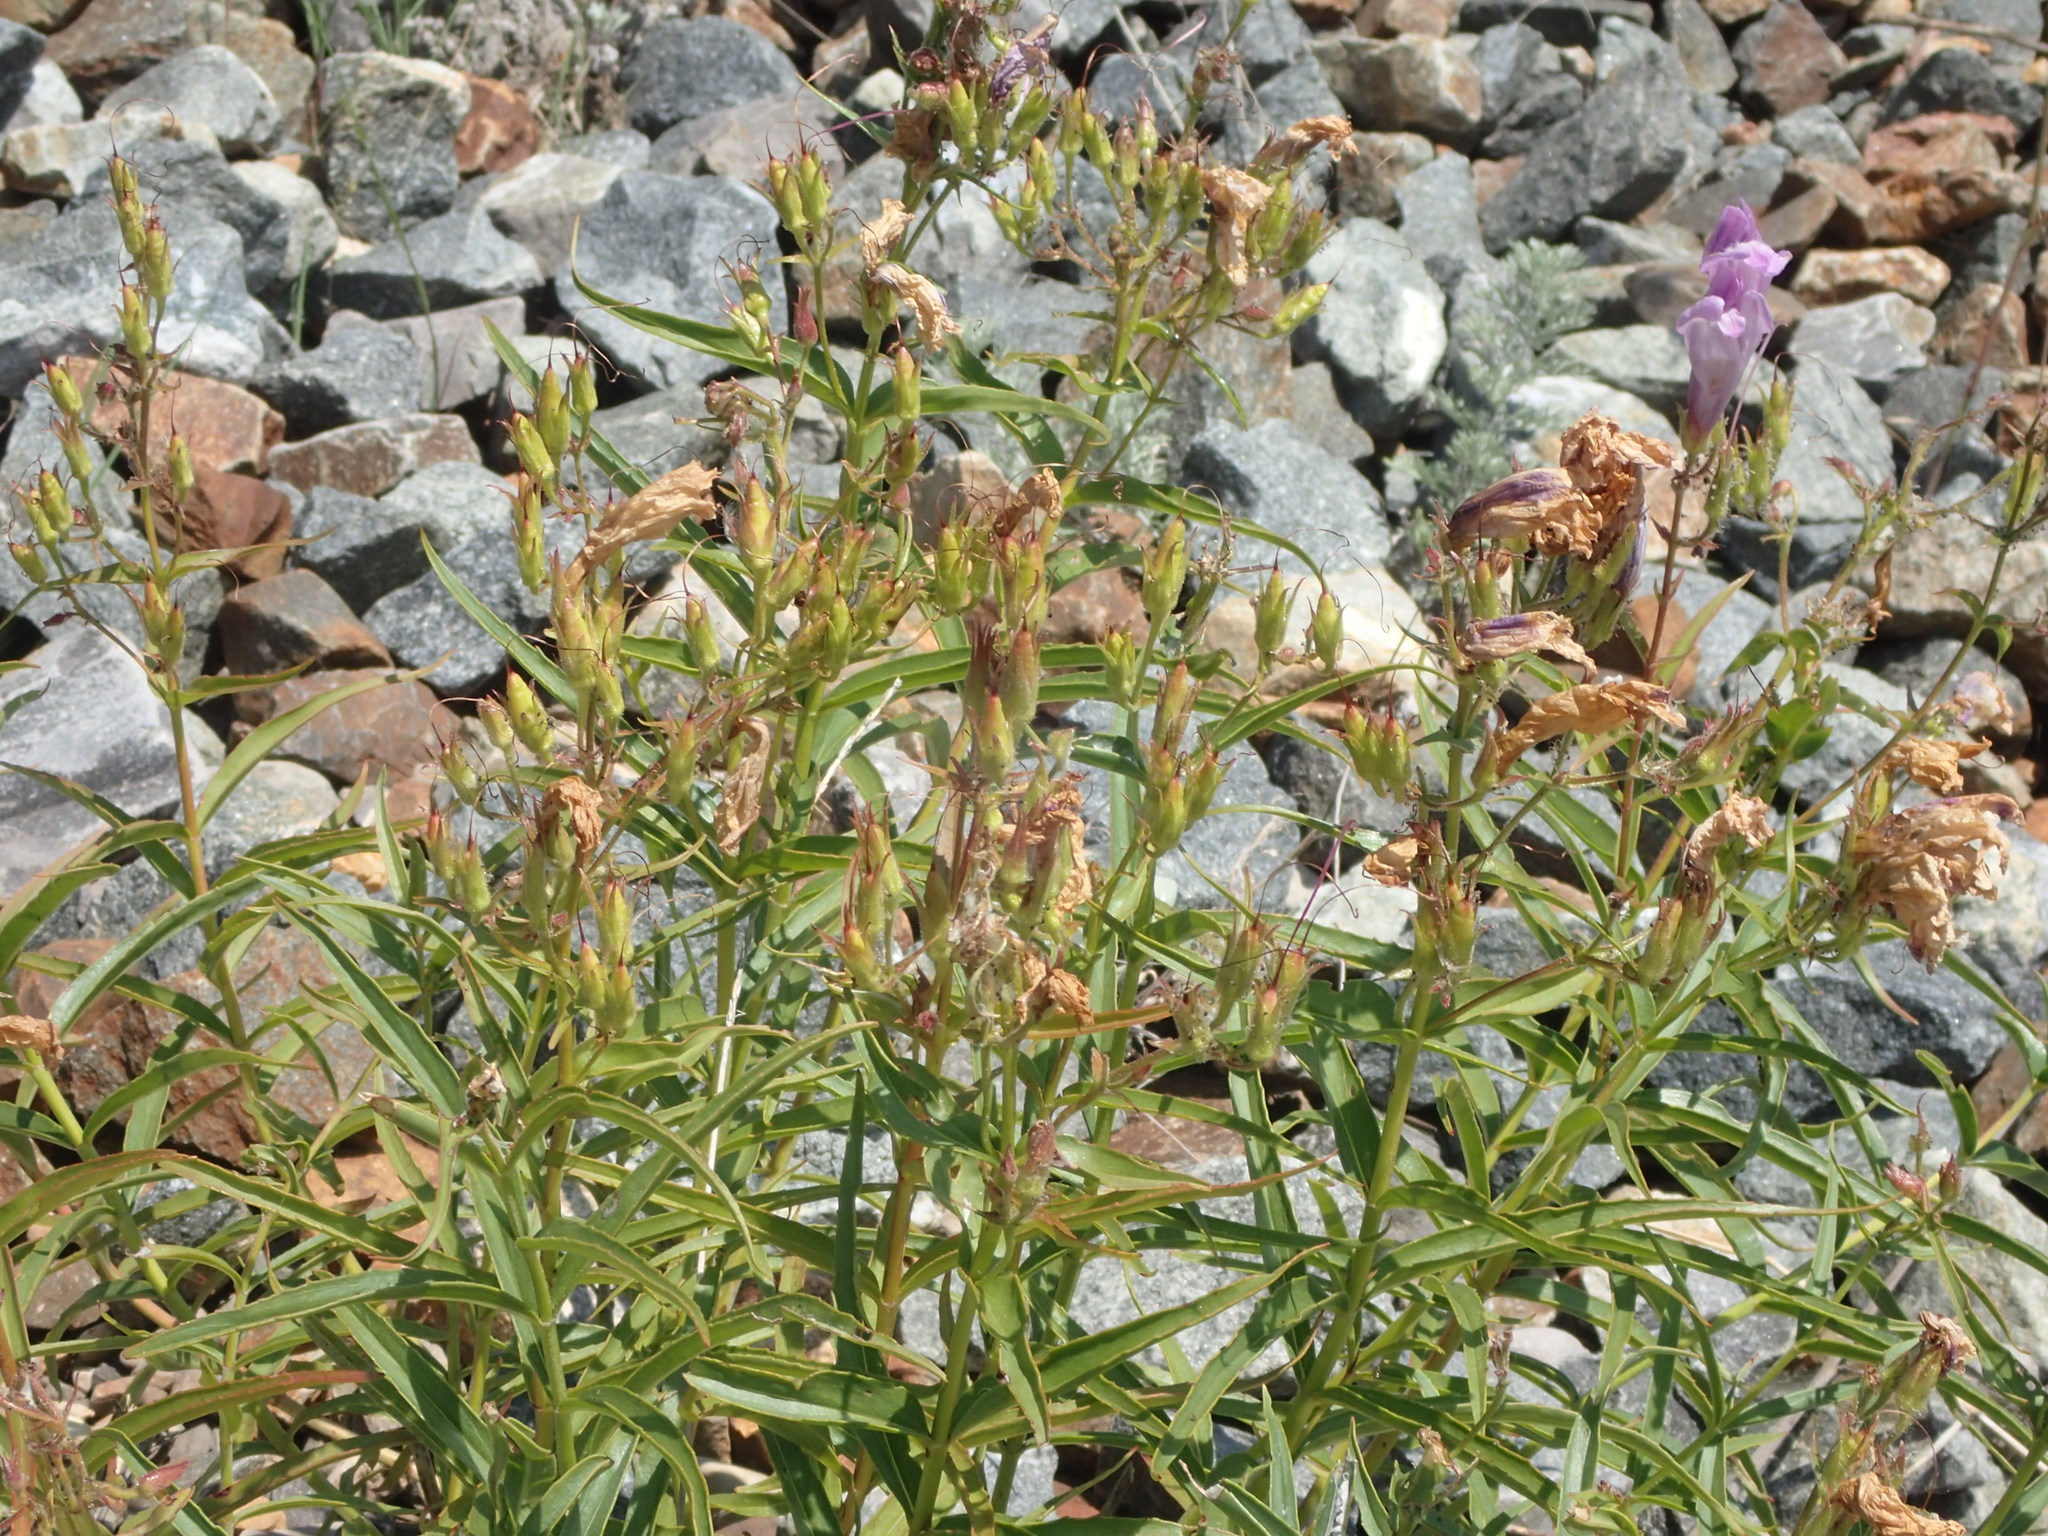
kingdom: Plantae
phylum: Tracheophyta
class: Magnoliopsida
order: Lamiales
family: Plantaginaceae
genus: Penstemon
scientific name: Penstemon lyalli
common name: Lyall's beardtongue
